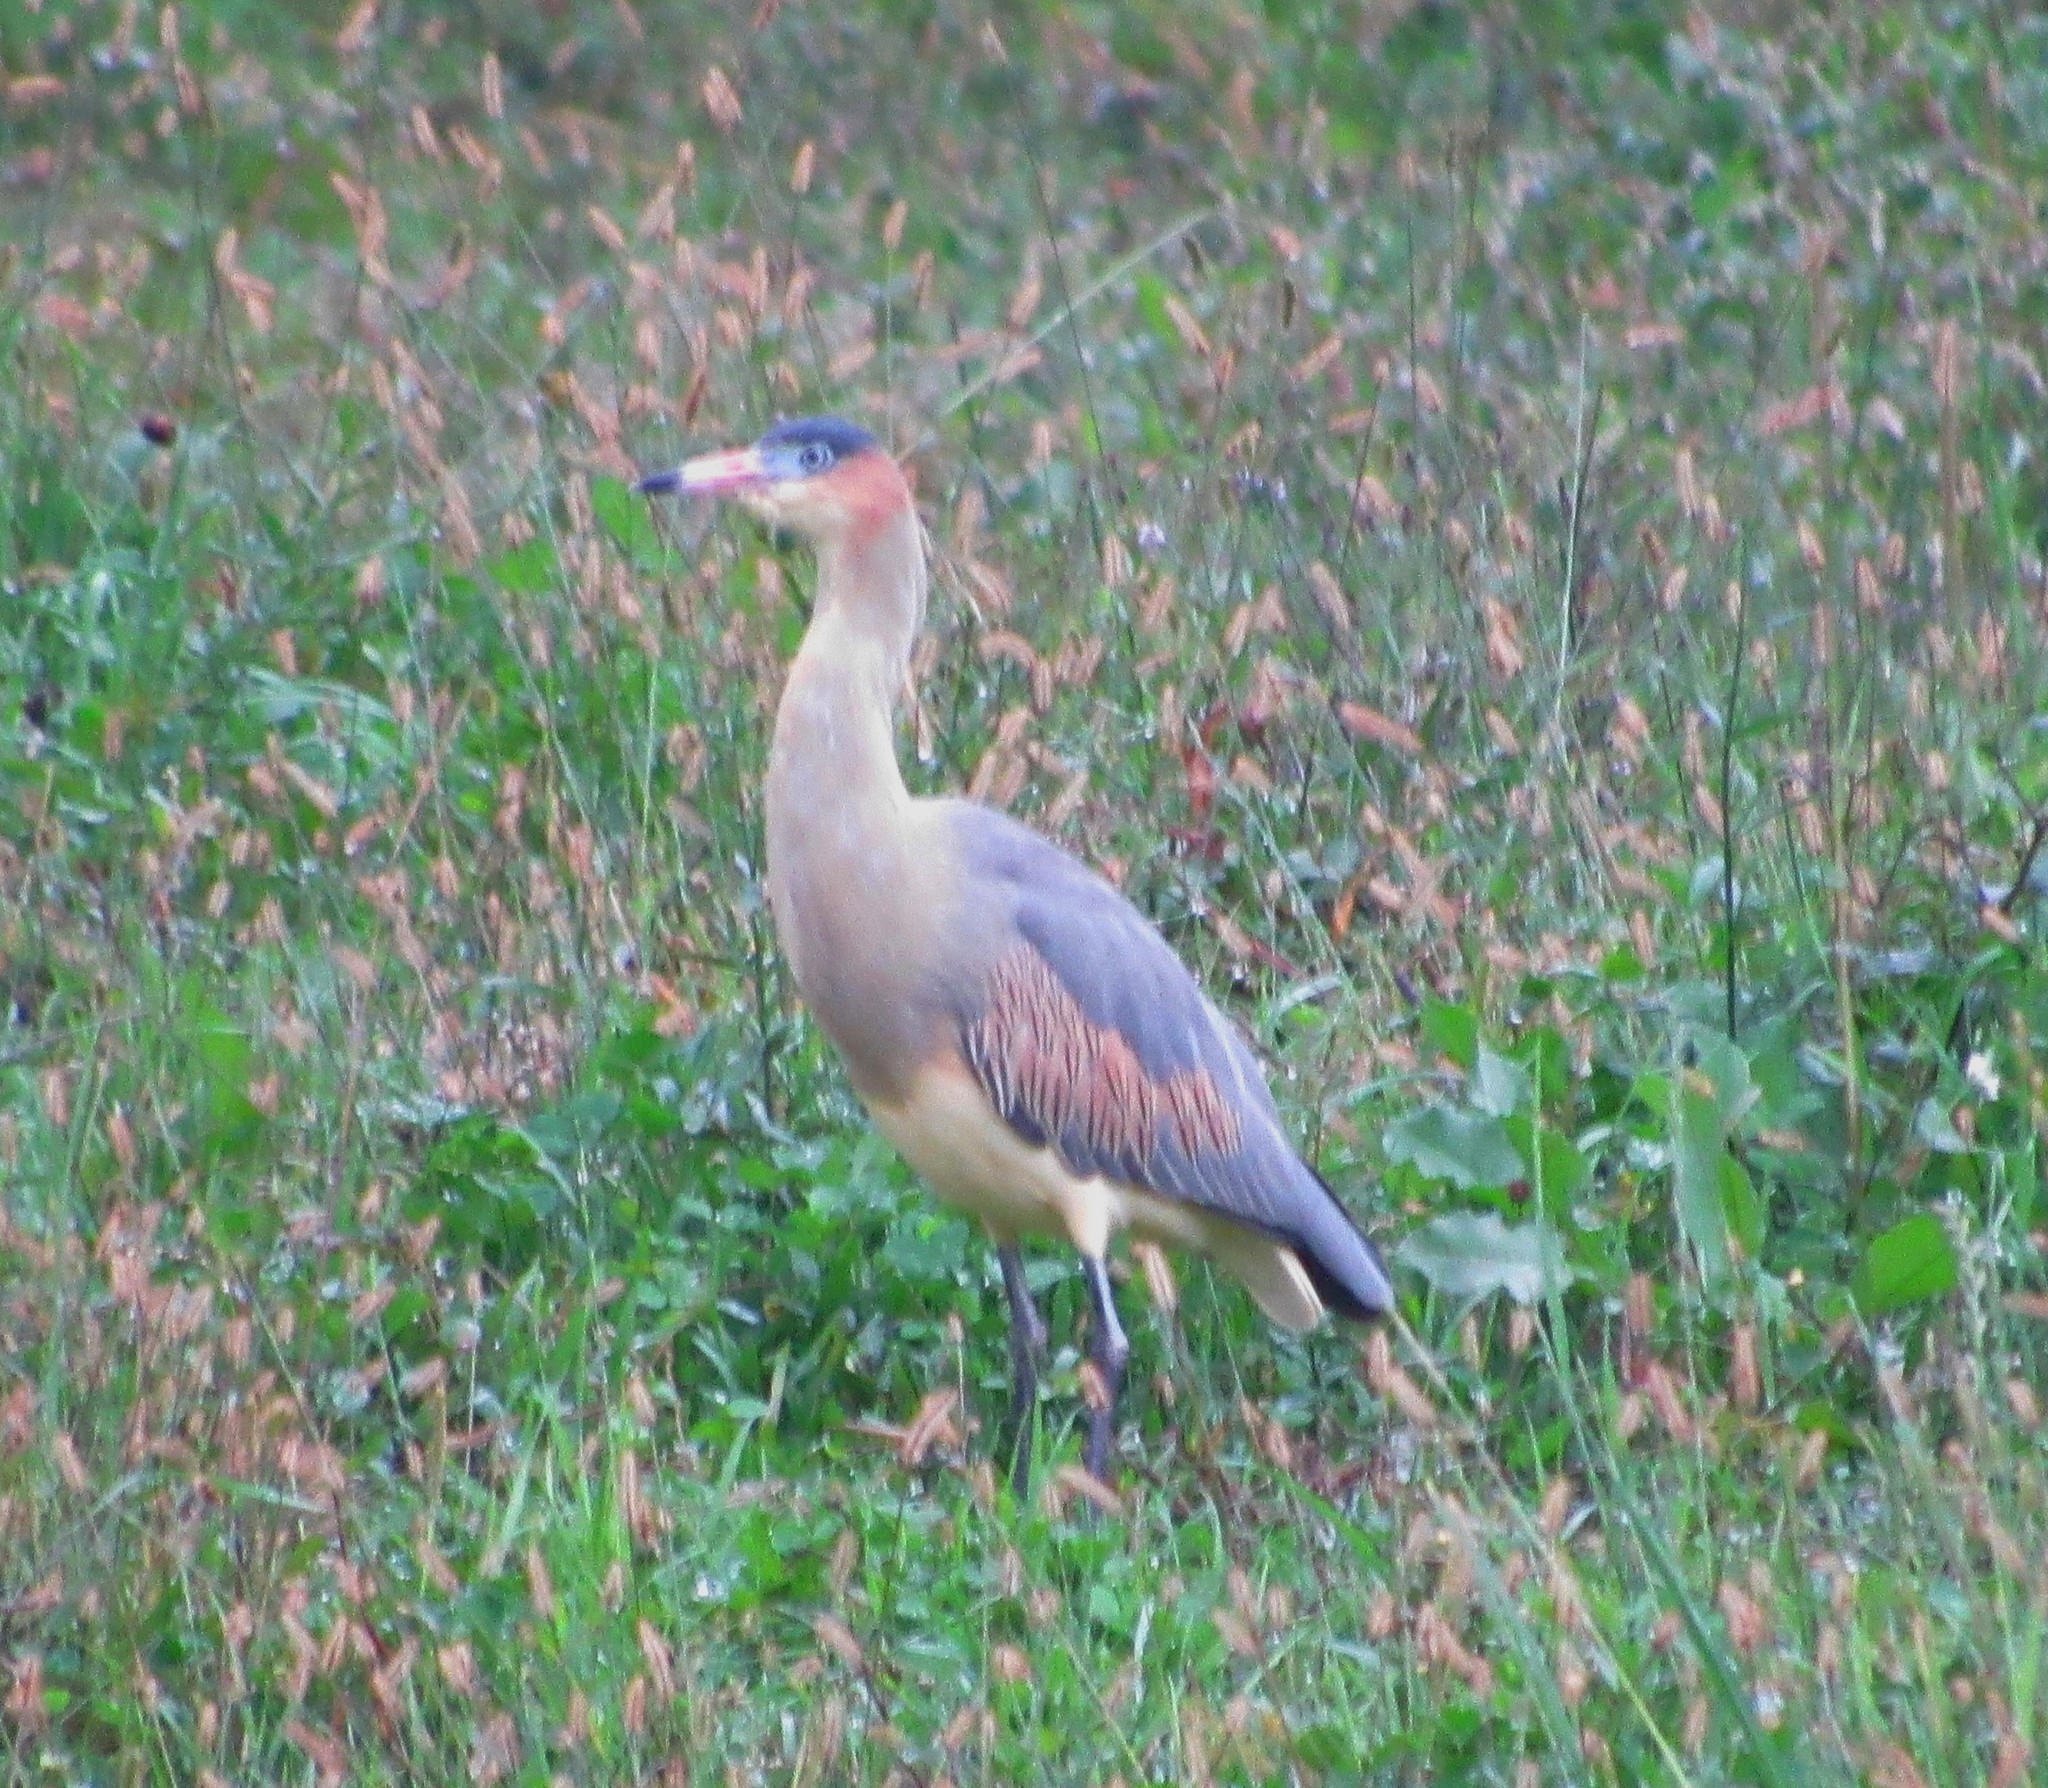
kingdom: Animalia
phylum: Chordata
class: Aves
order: Pelecaniformes
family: Ardeidae
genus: Syrigma
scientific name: Syrigma sibilatrix
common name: Whistling heron
